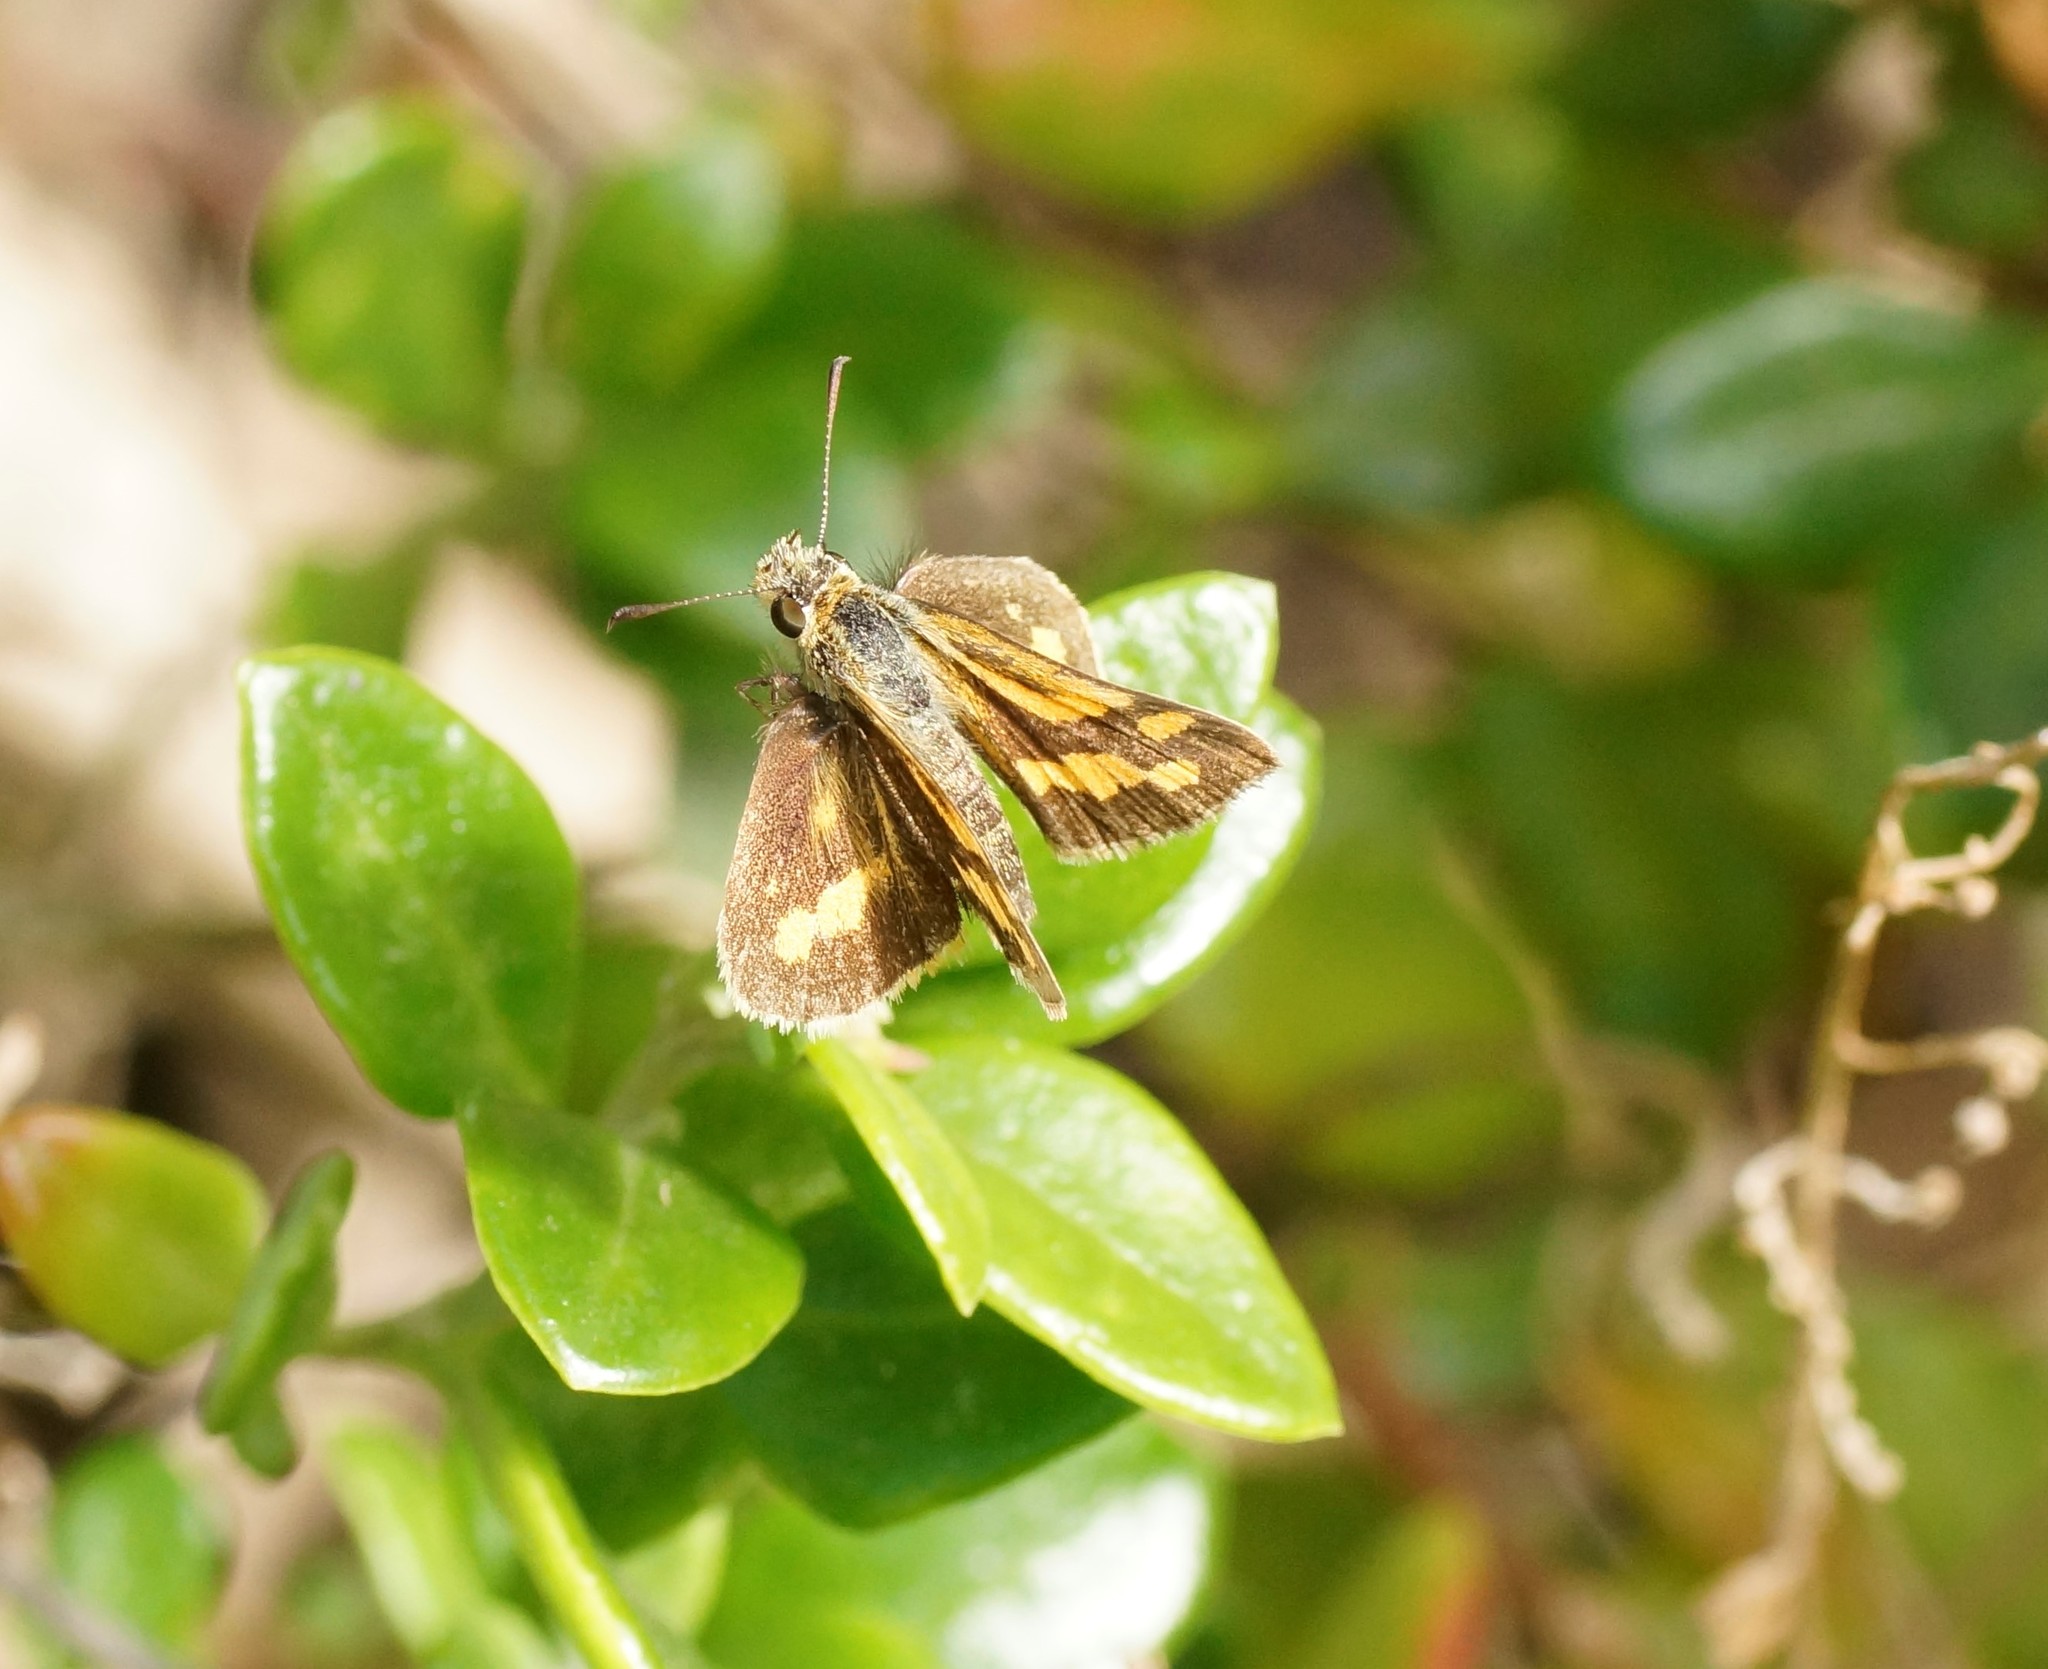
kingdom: Animalia
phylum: Arthropoda
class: Insecta
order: Lepidoptera
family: Hesperiidae
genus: Ocybadistes
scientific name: Ocybadistes walkeri
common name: Yellow-banded dart
